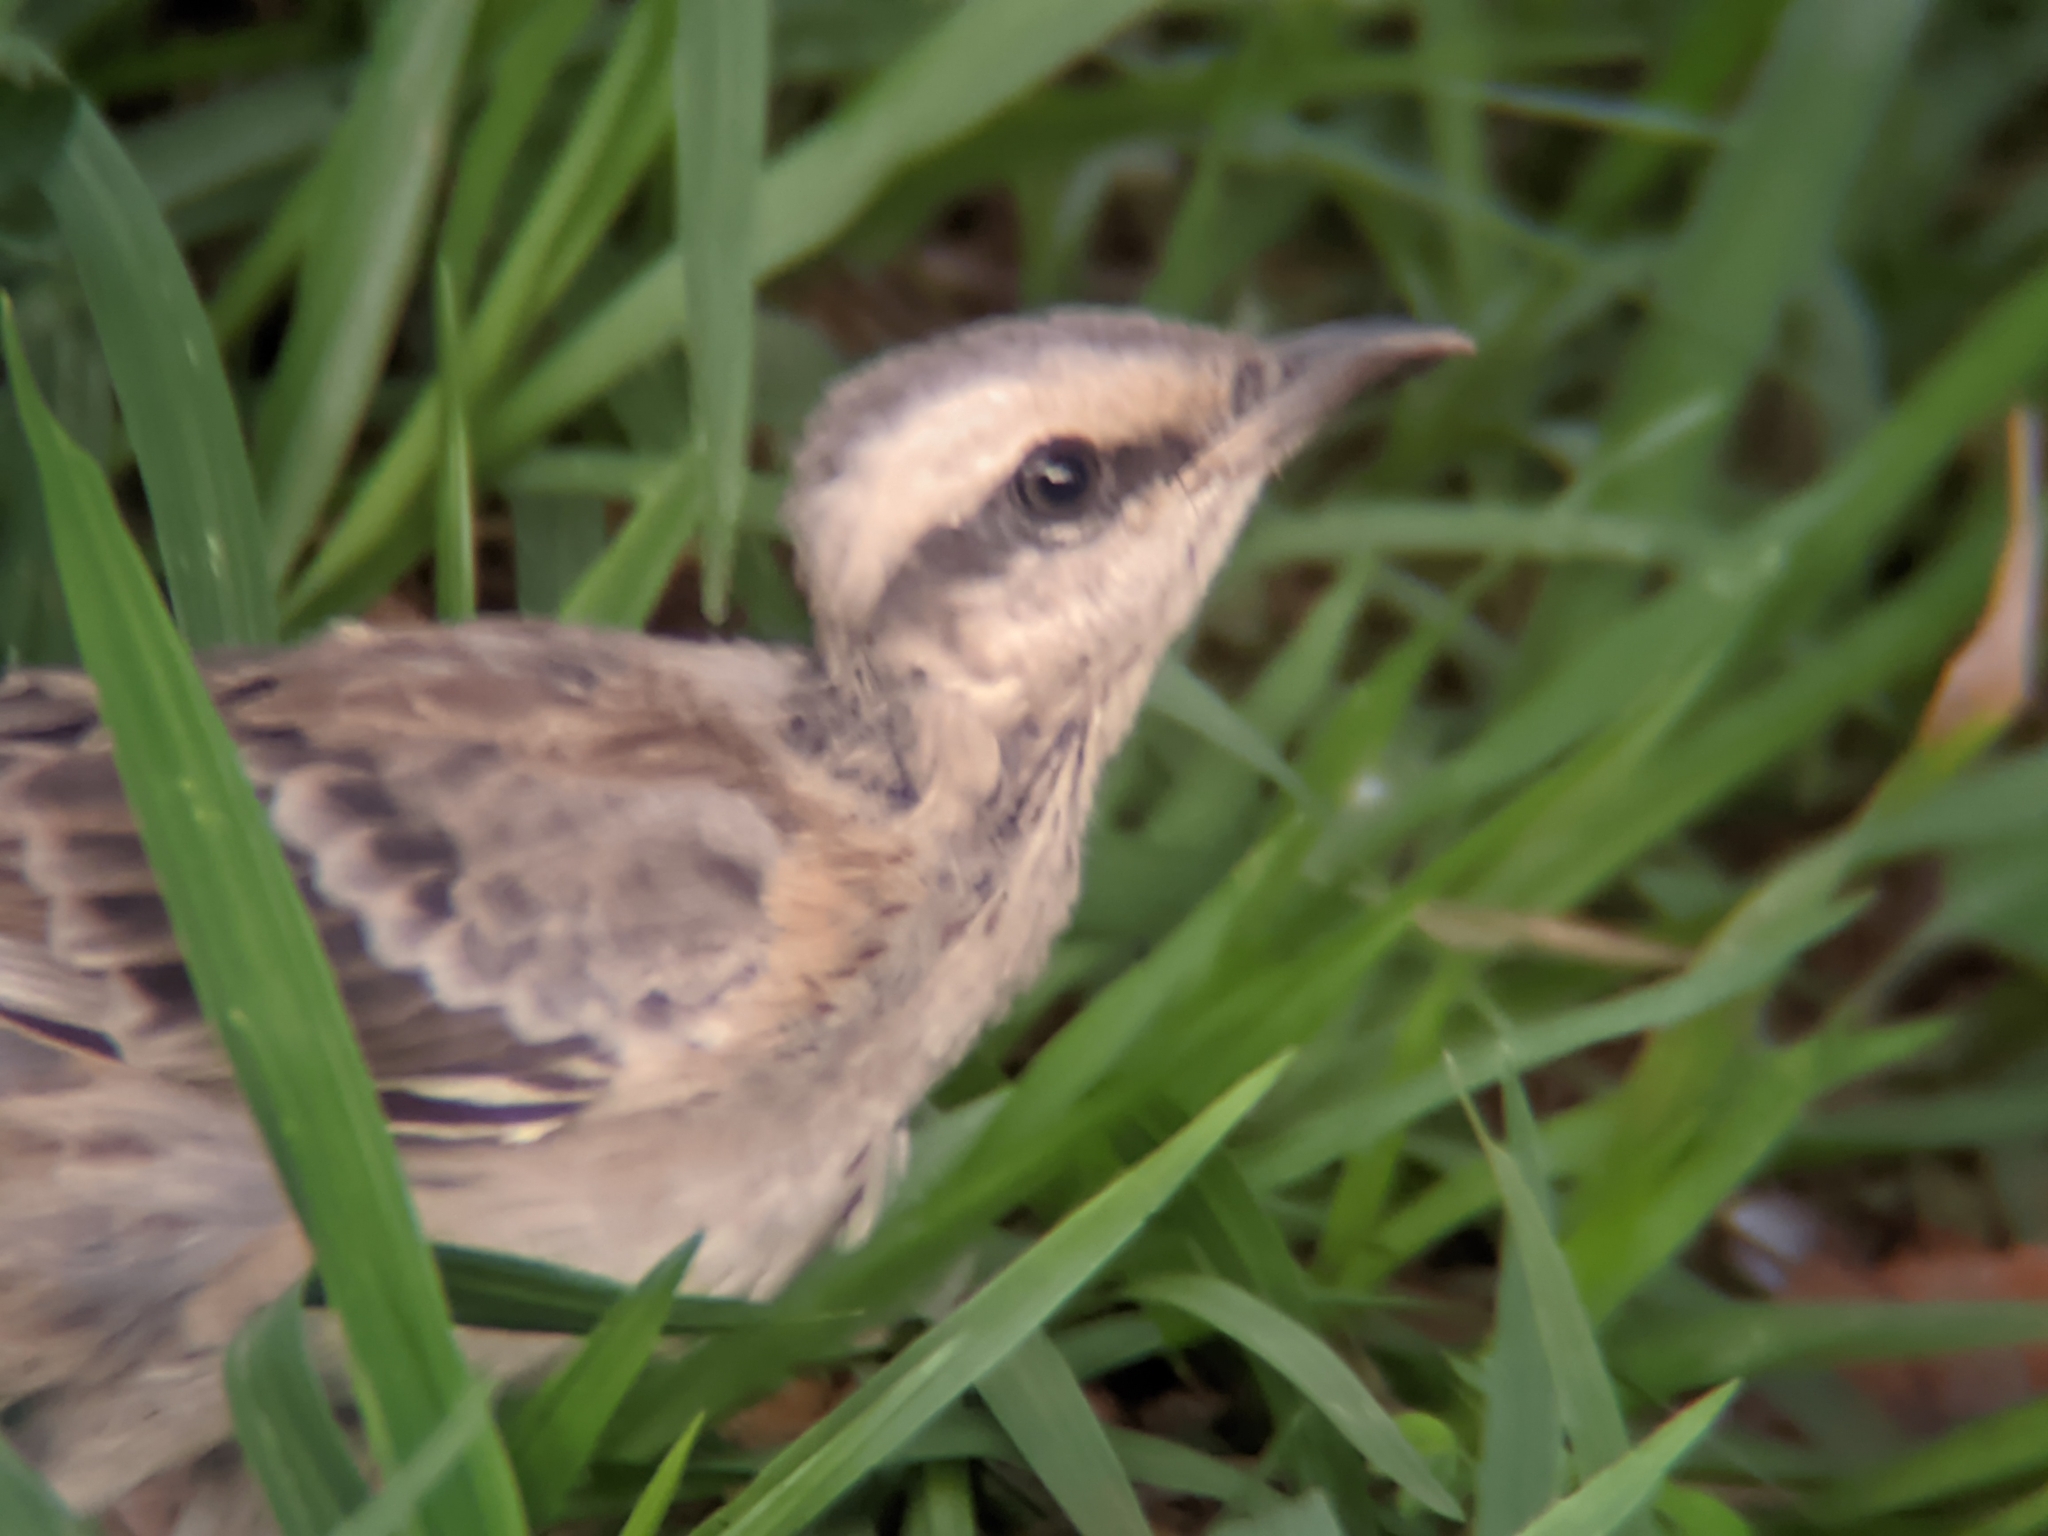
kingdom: Animalia
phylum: Chordata
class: Aves
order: Passeriformes
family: Mimidae
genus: Mimus
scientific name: Mimus saturninus
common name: Chalk-browed mockingbird
